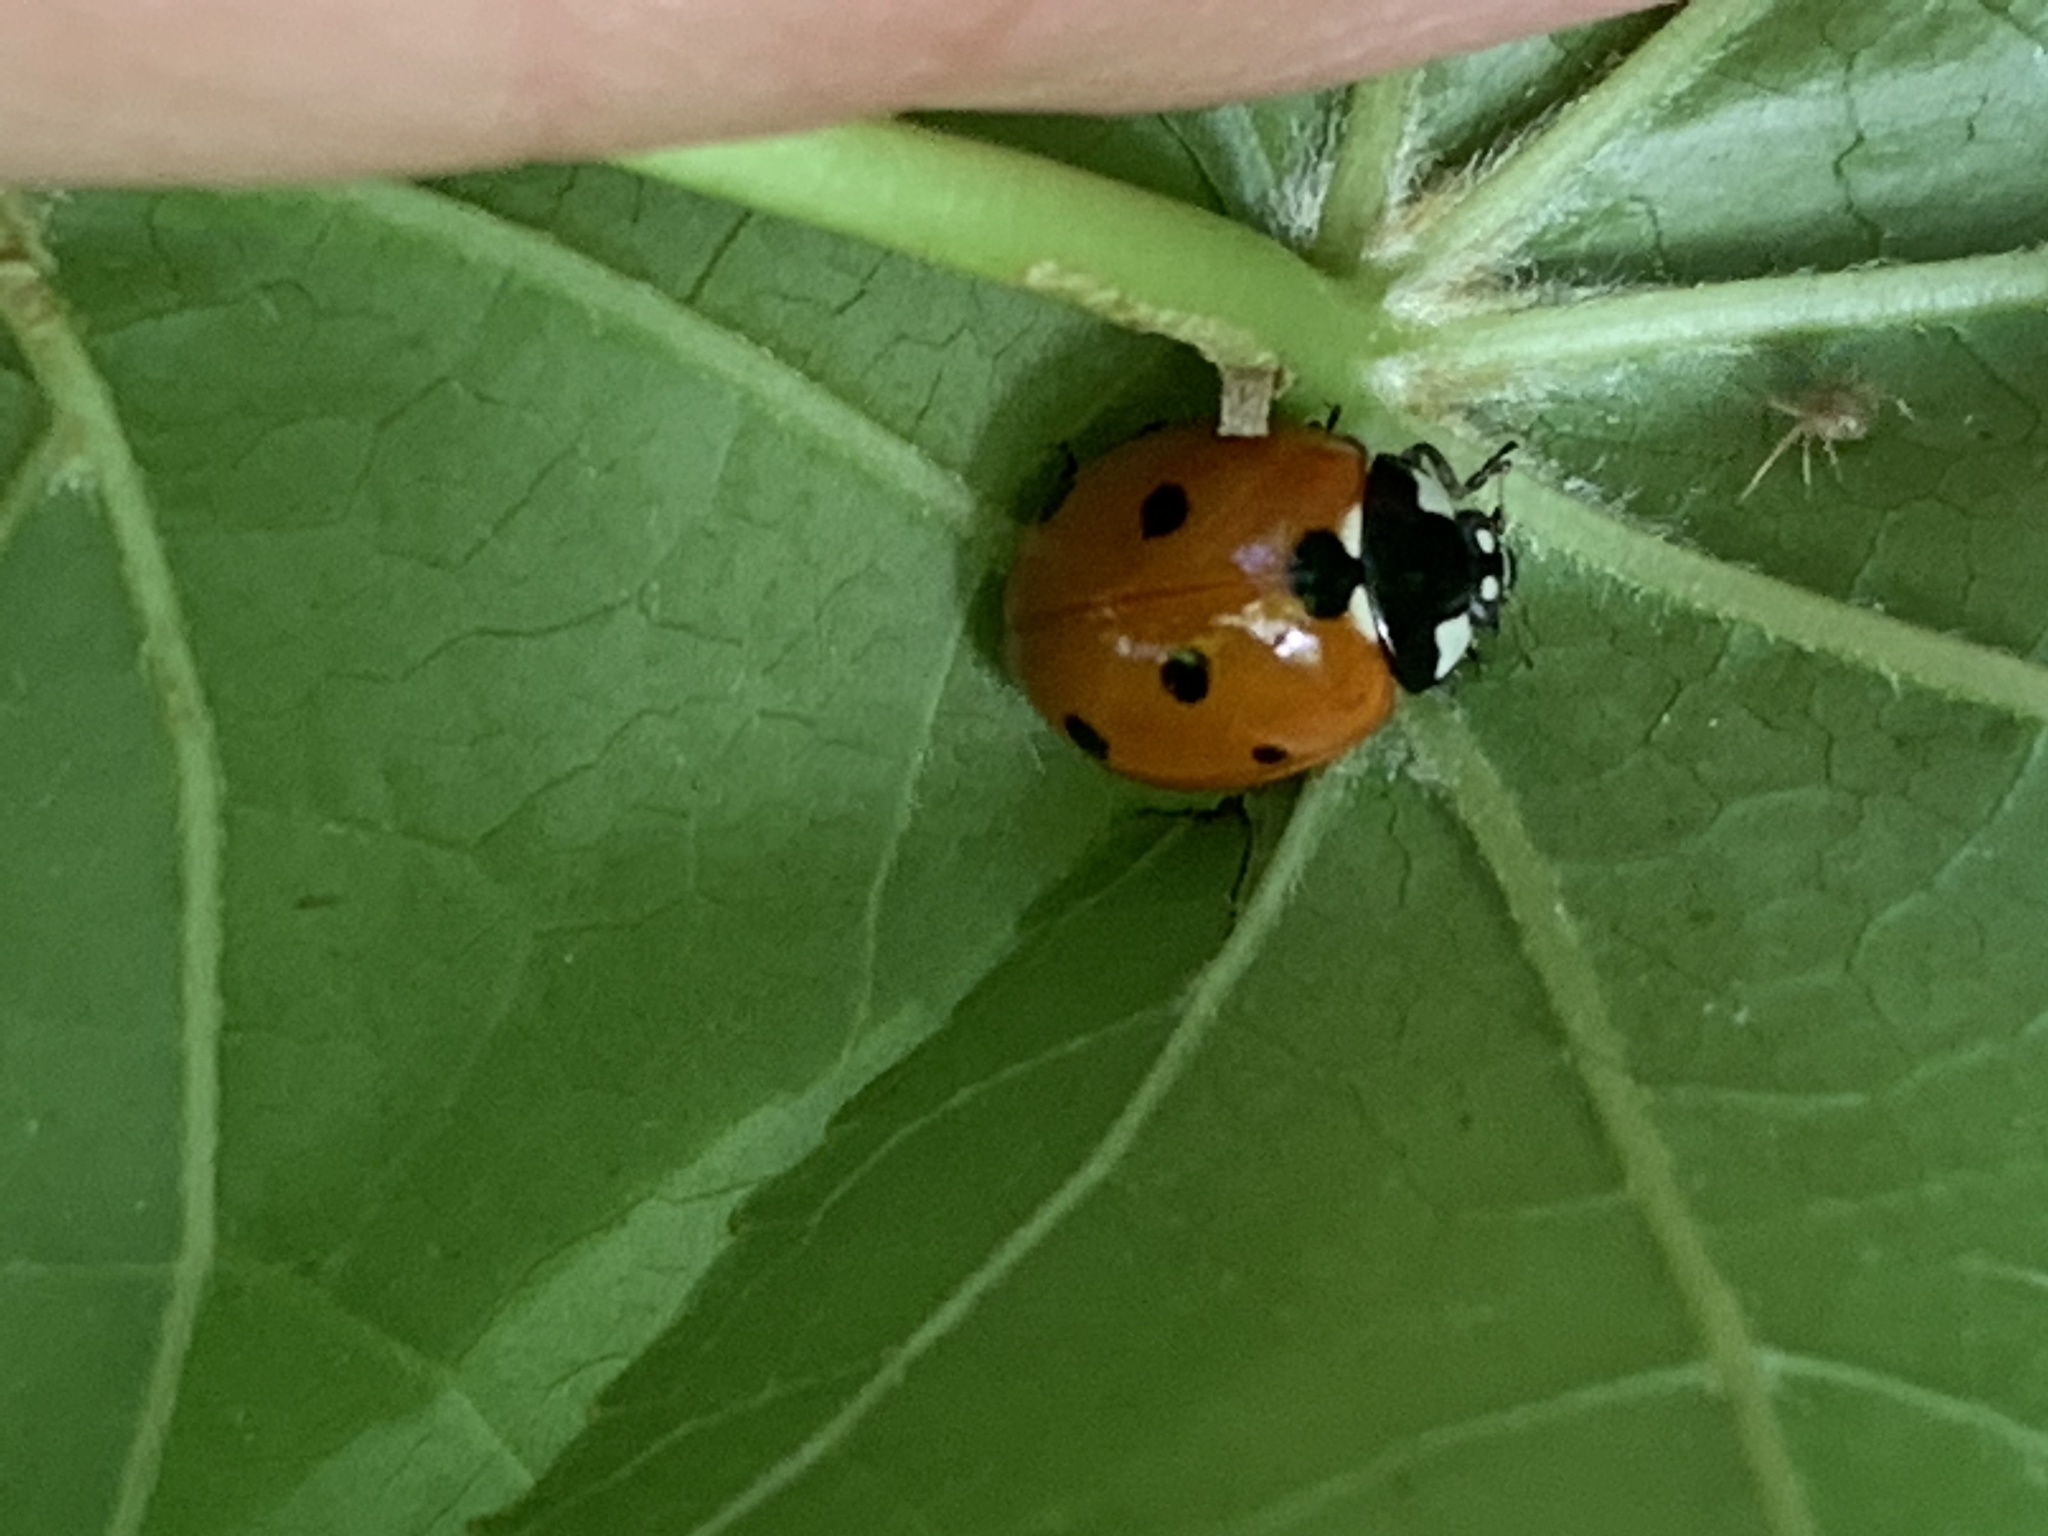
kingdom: Animalia
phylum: Arthropoda
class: Insecta
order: Coleoptera
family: Coccinellidae
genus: Coccinella
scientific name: Coccinella septempunctata
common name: Sevenspotted lady beetle
